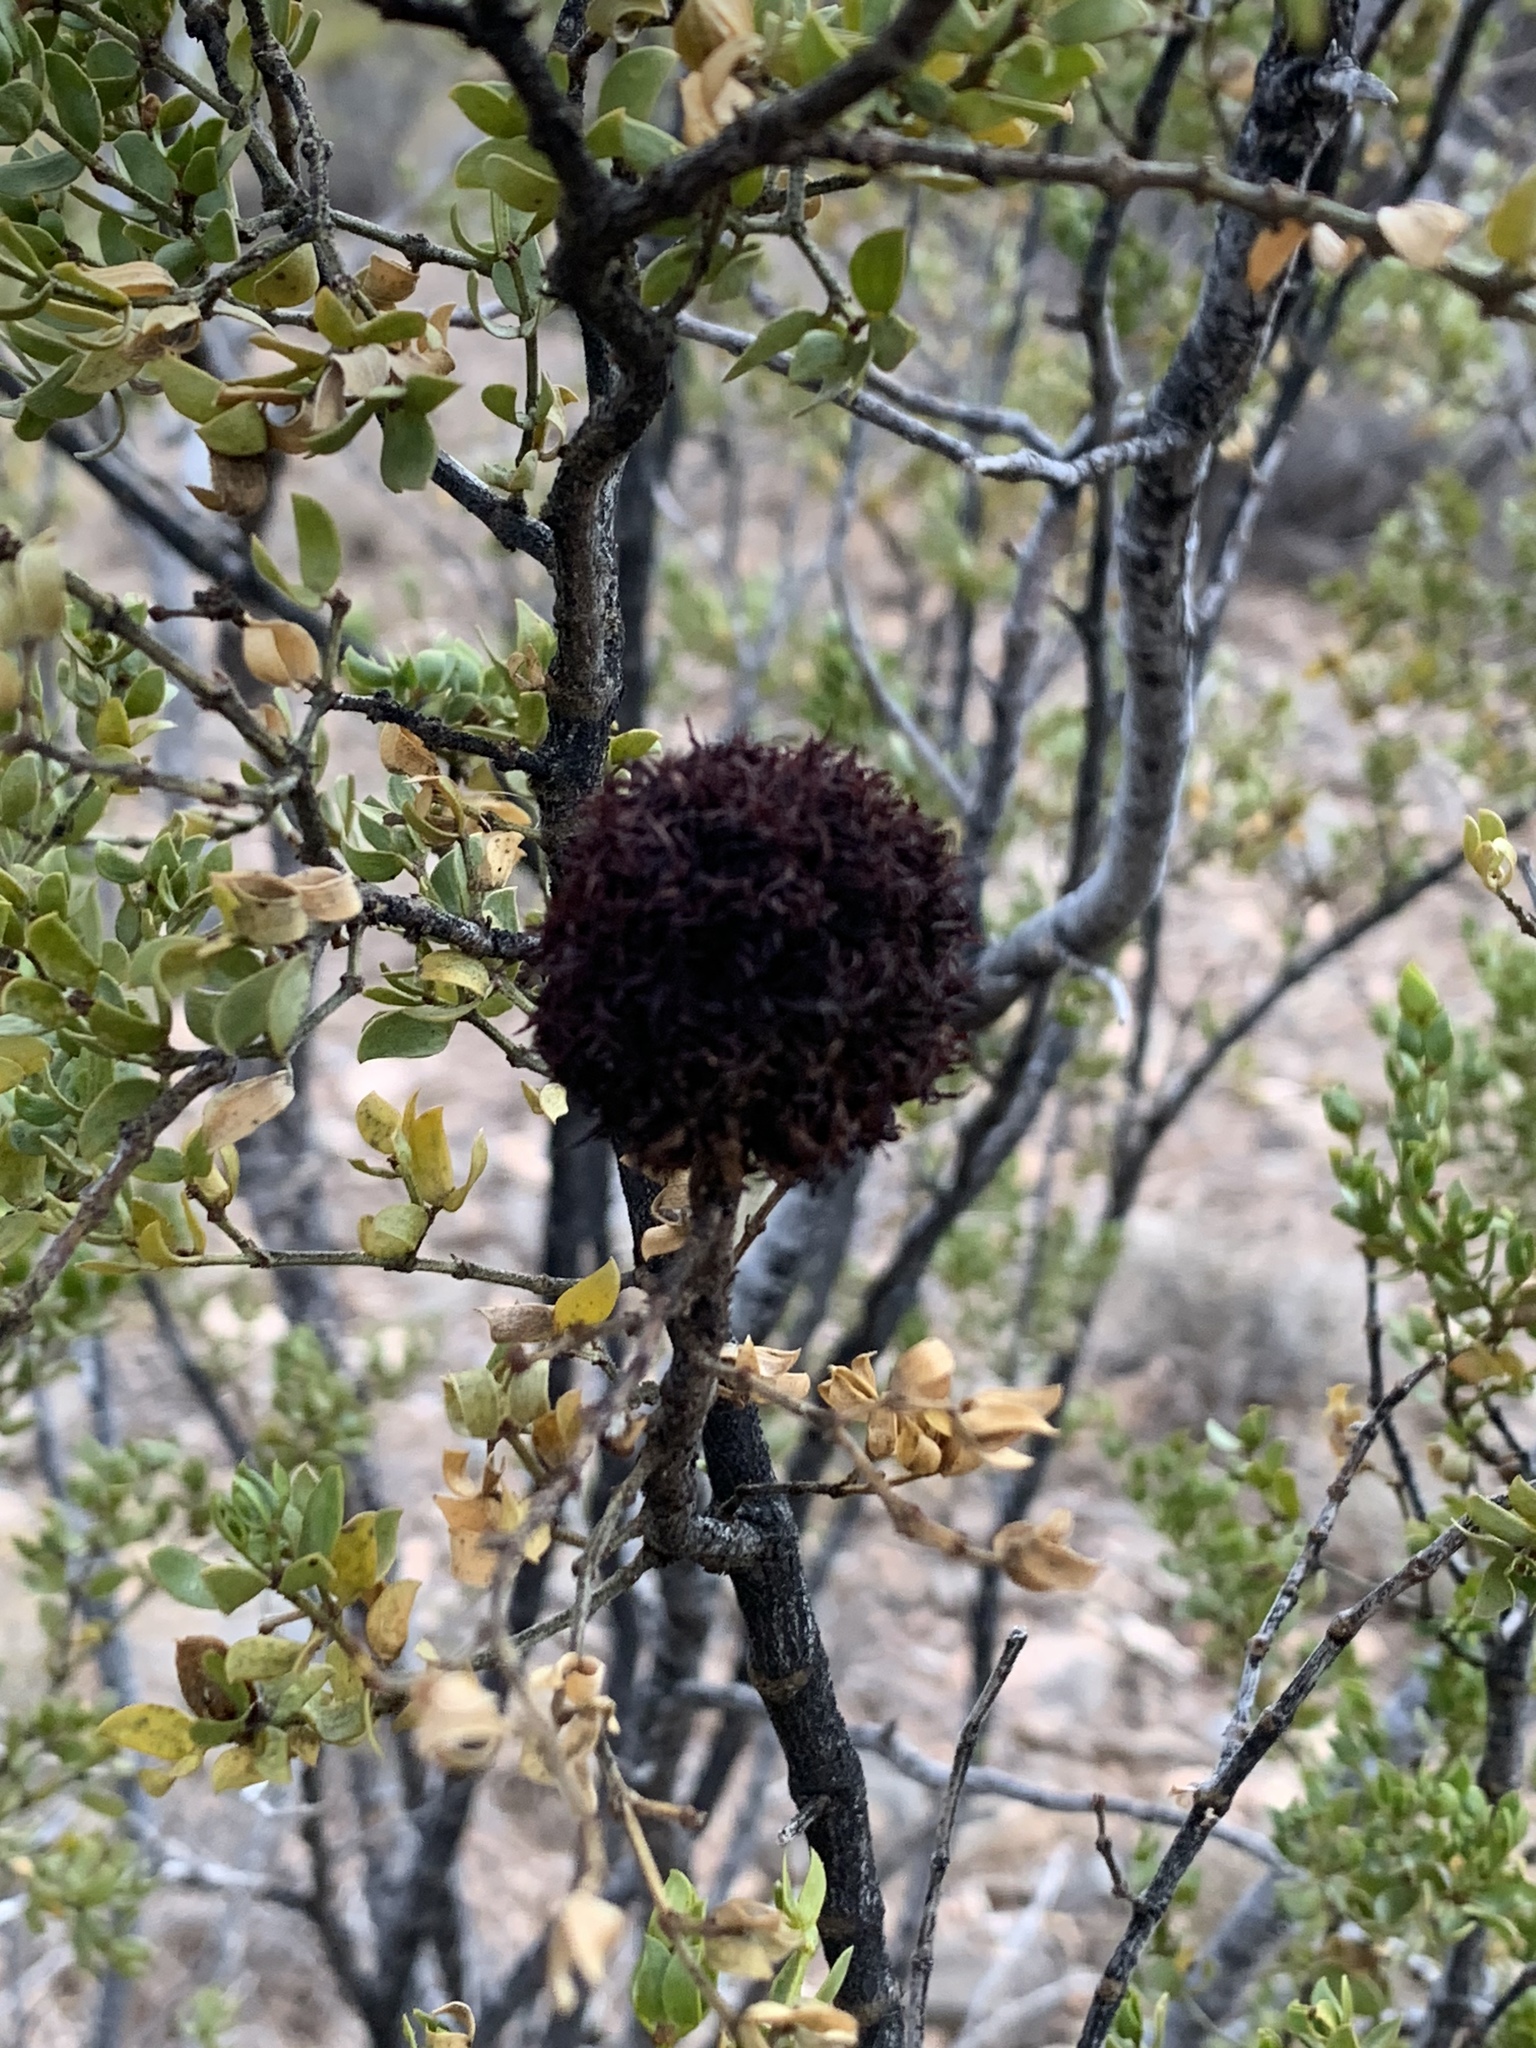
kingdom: Animalia
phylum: Arthropoda
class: Insecta
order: Diptera
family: Cecidomyiidae
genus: Asphondylia
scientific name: Asphondylia auripila
